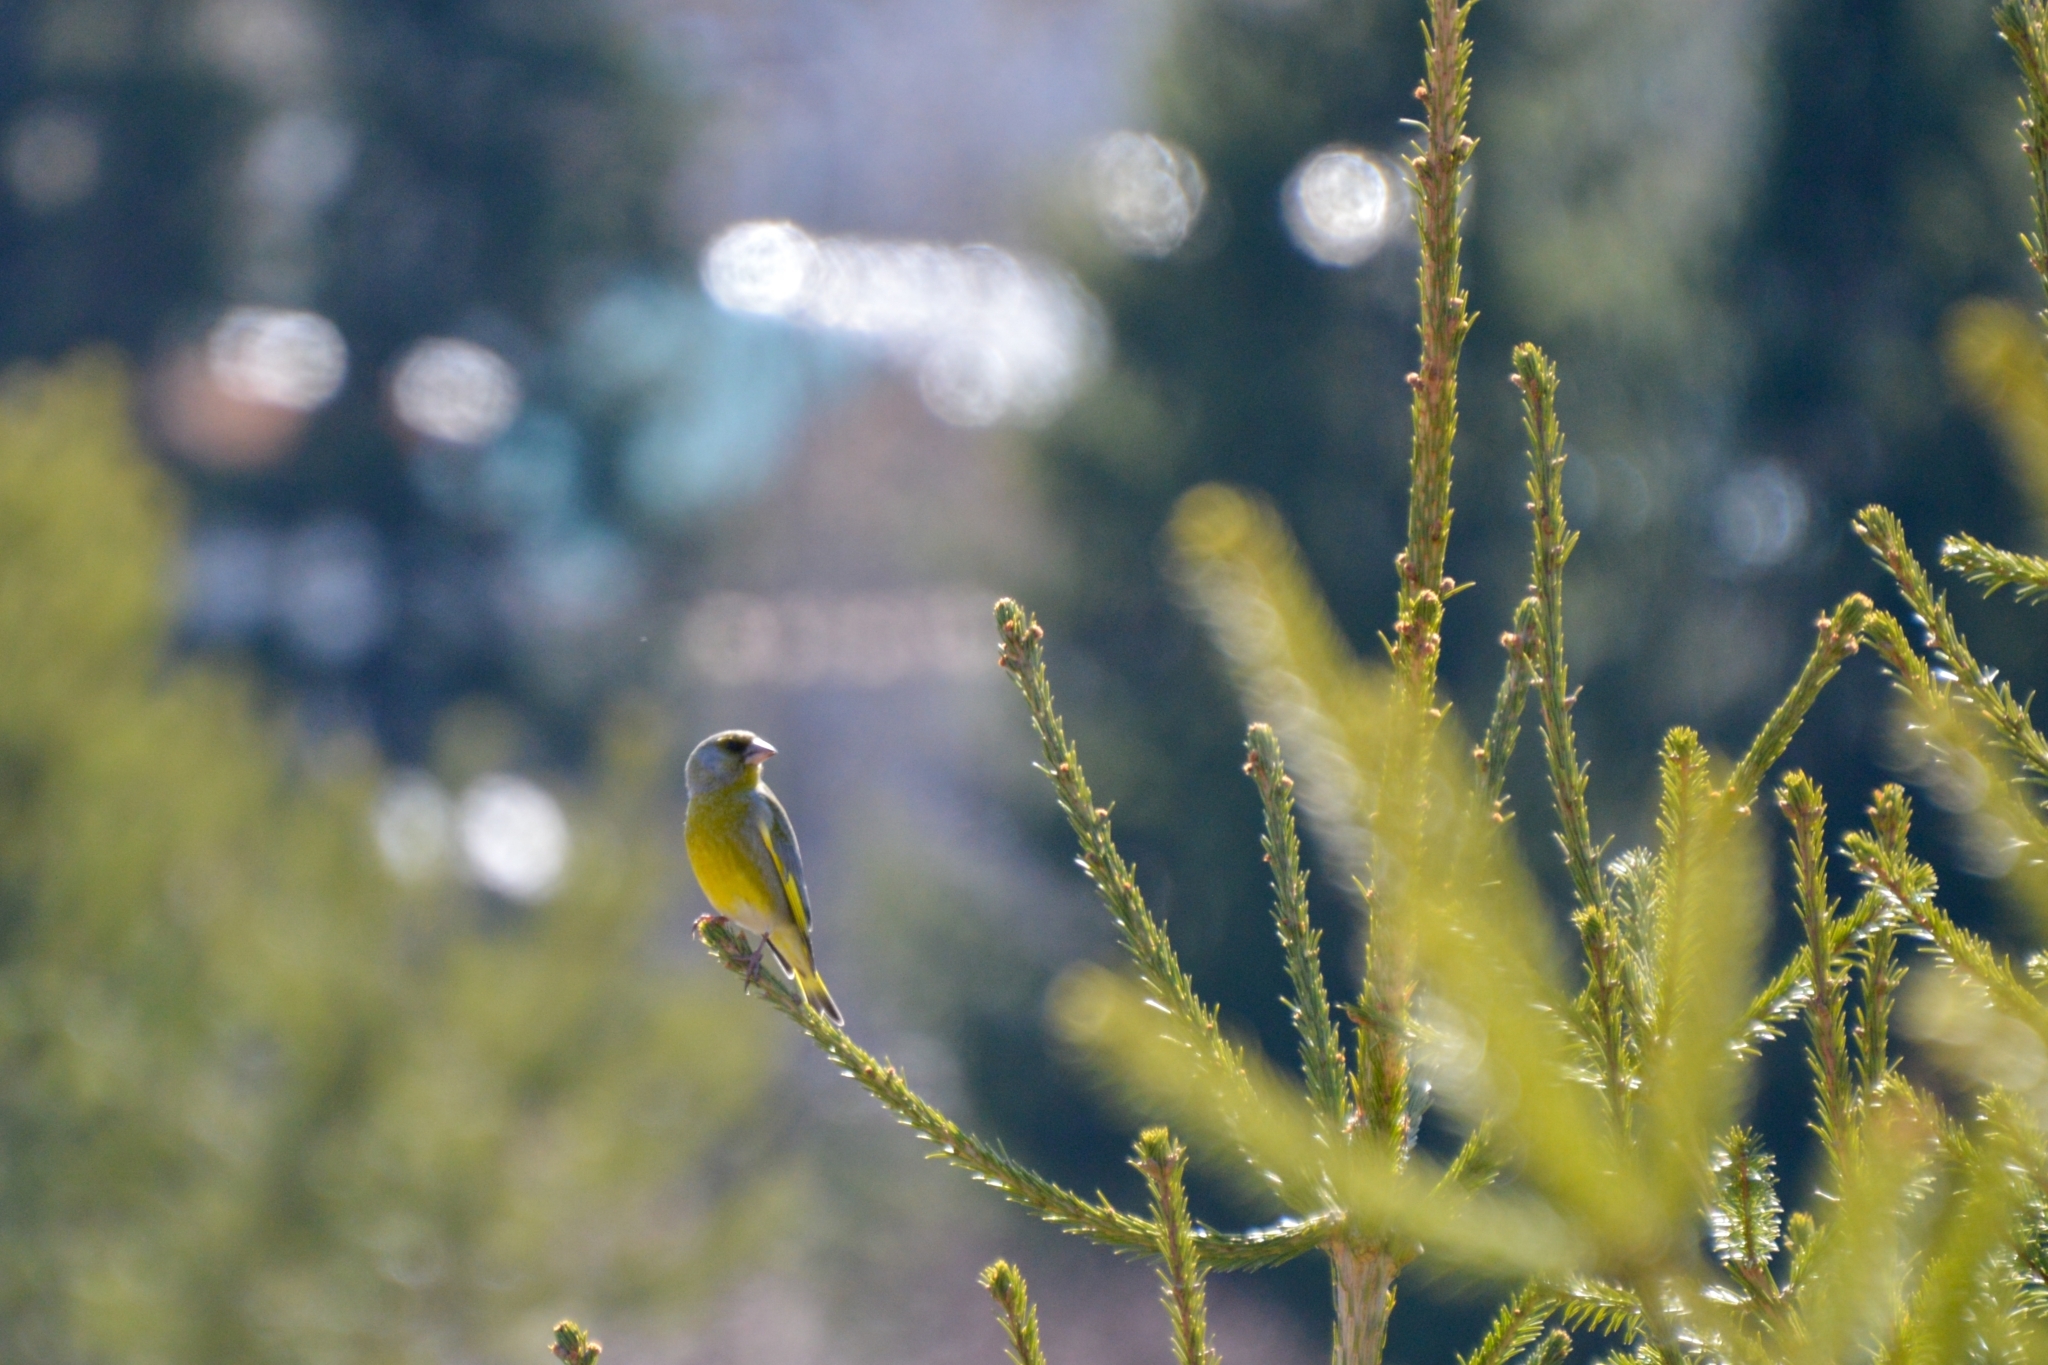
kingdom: Plantae
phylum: Tracheophyta
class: Liliopsida
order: Poales
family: Poaceae
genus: Chloris
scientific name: Chloris chloris
